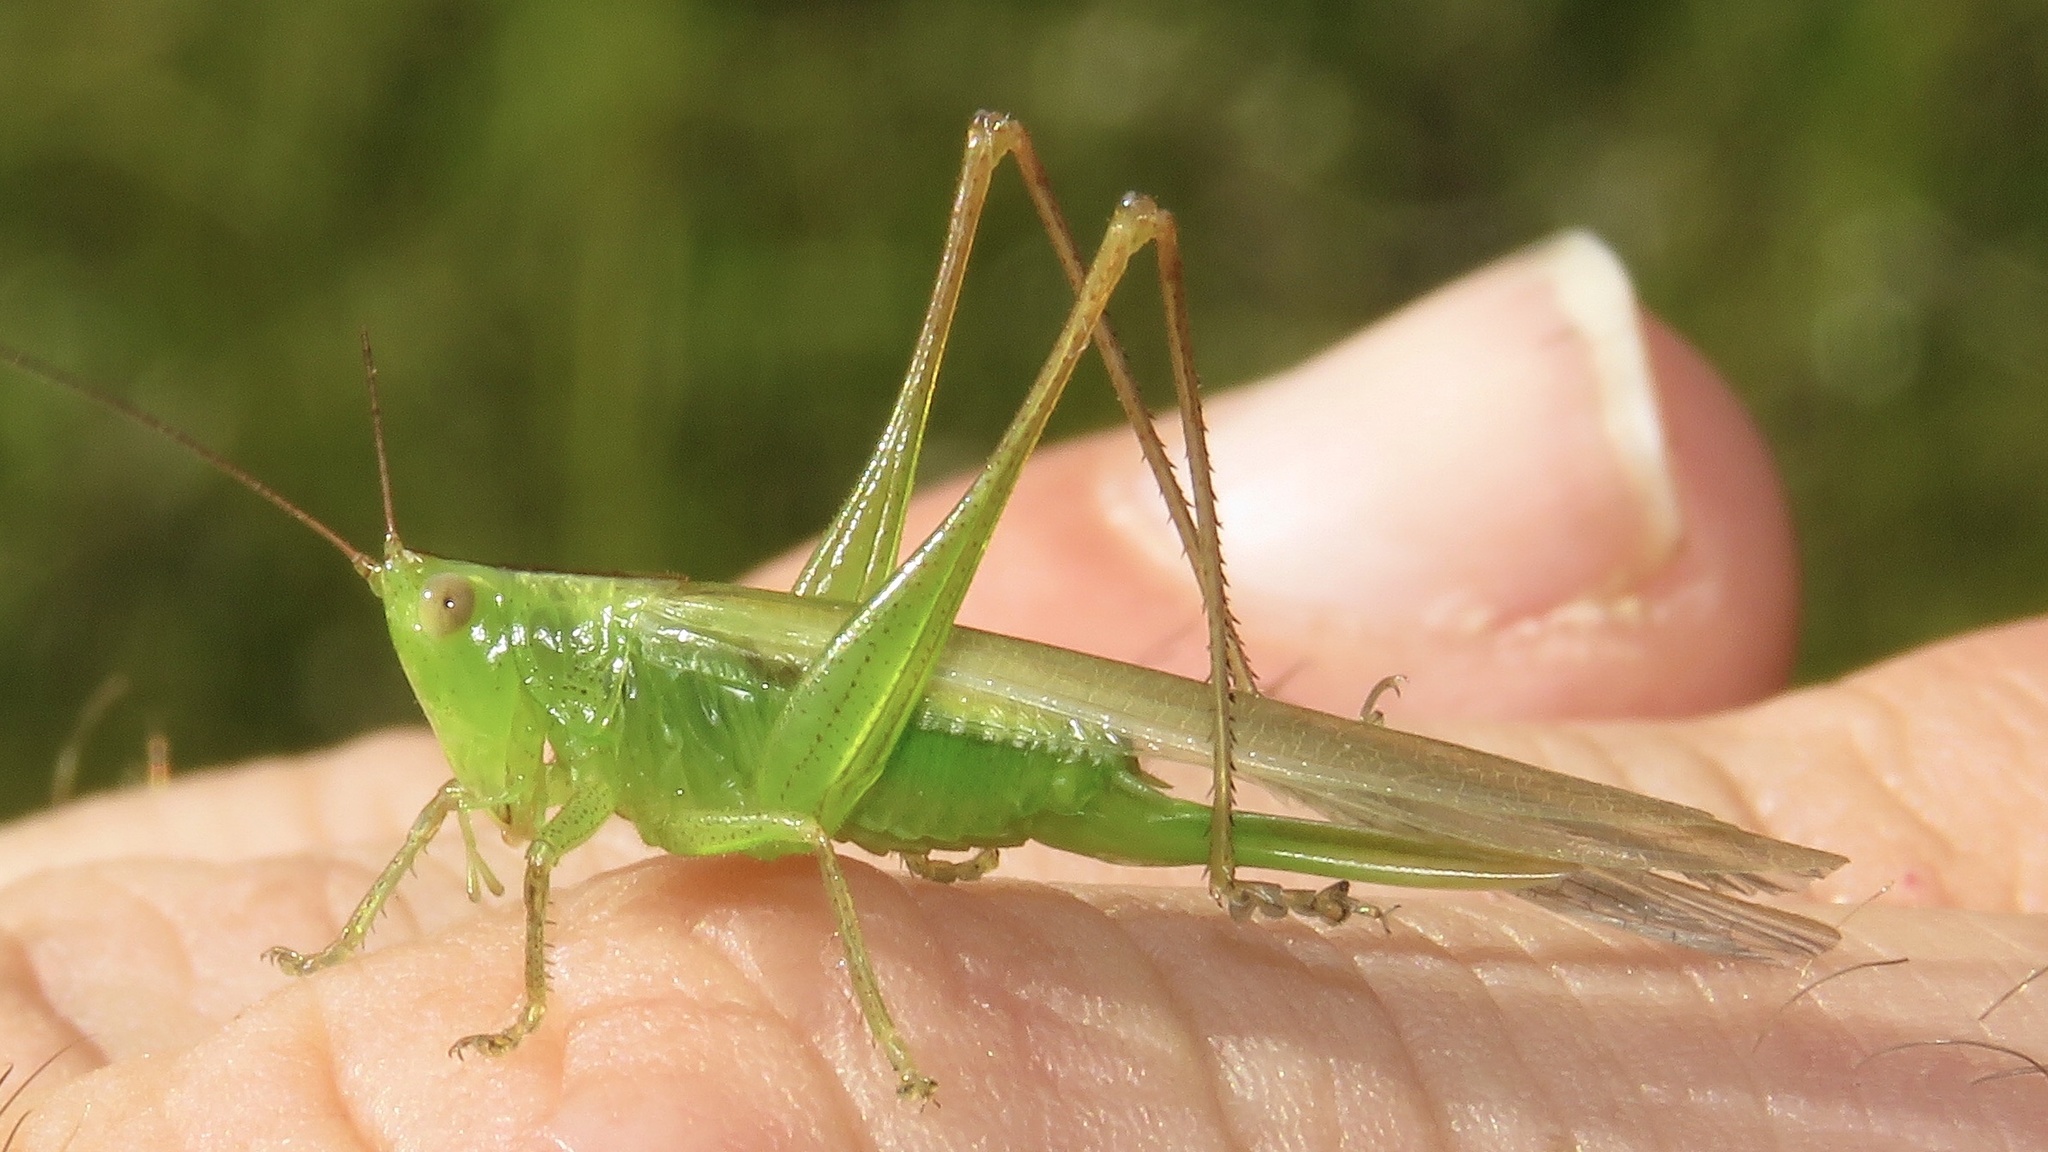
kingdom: Animalia
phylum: Arthropoda
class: Insecta
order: Orthoptera
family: Tettigoniidae
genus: Conocephalus
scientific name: Conocephalus fasciatus
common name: Slender meadow katydid
